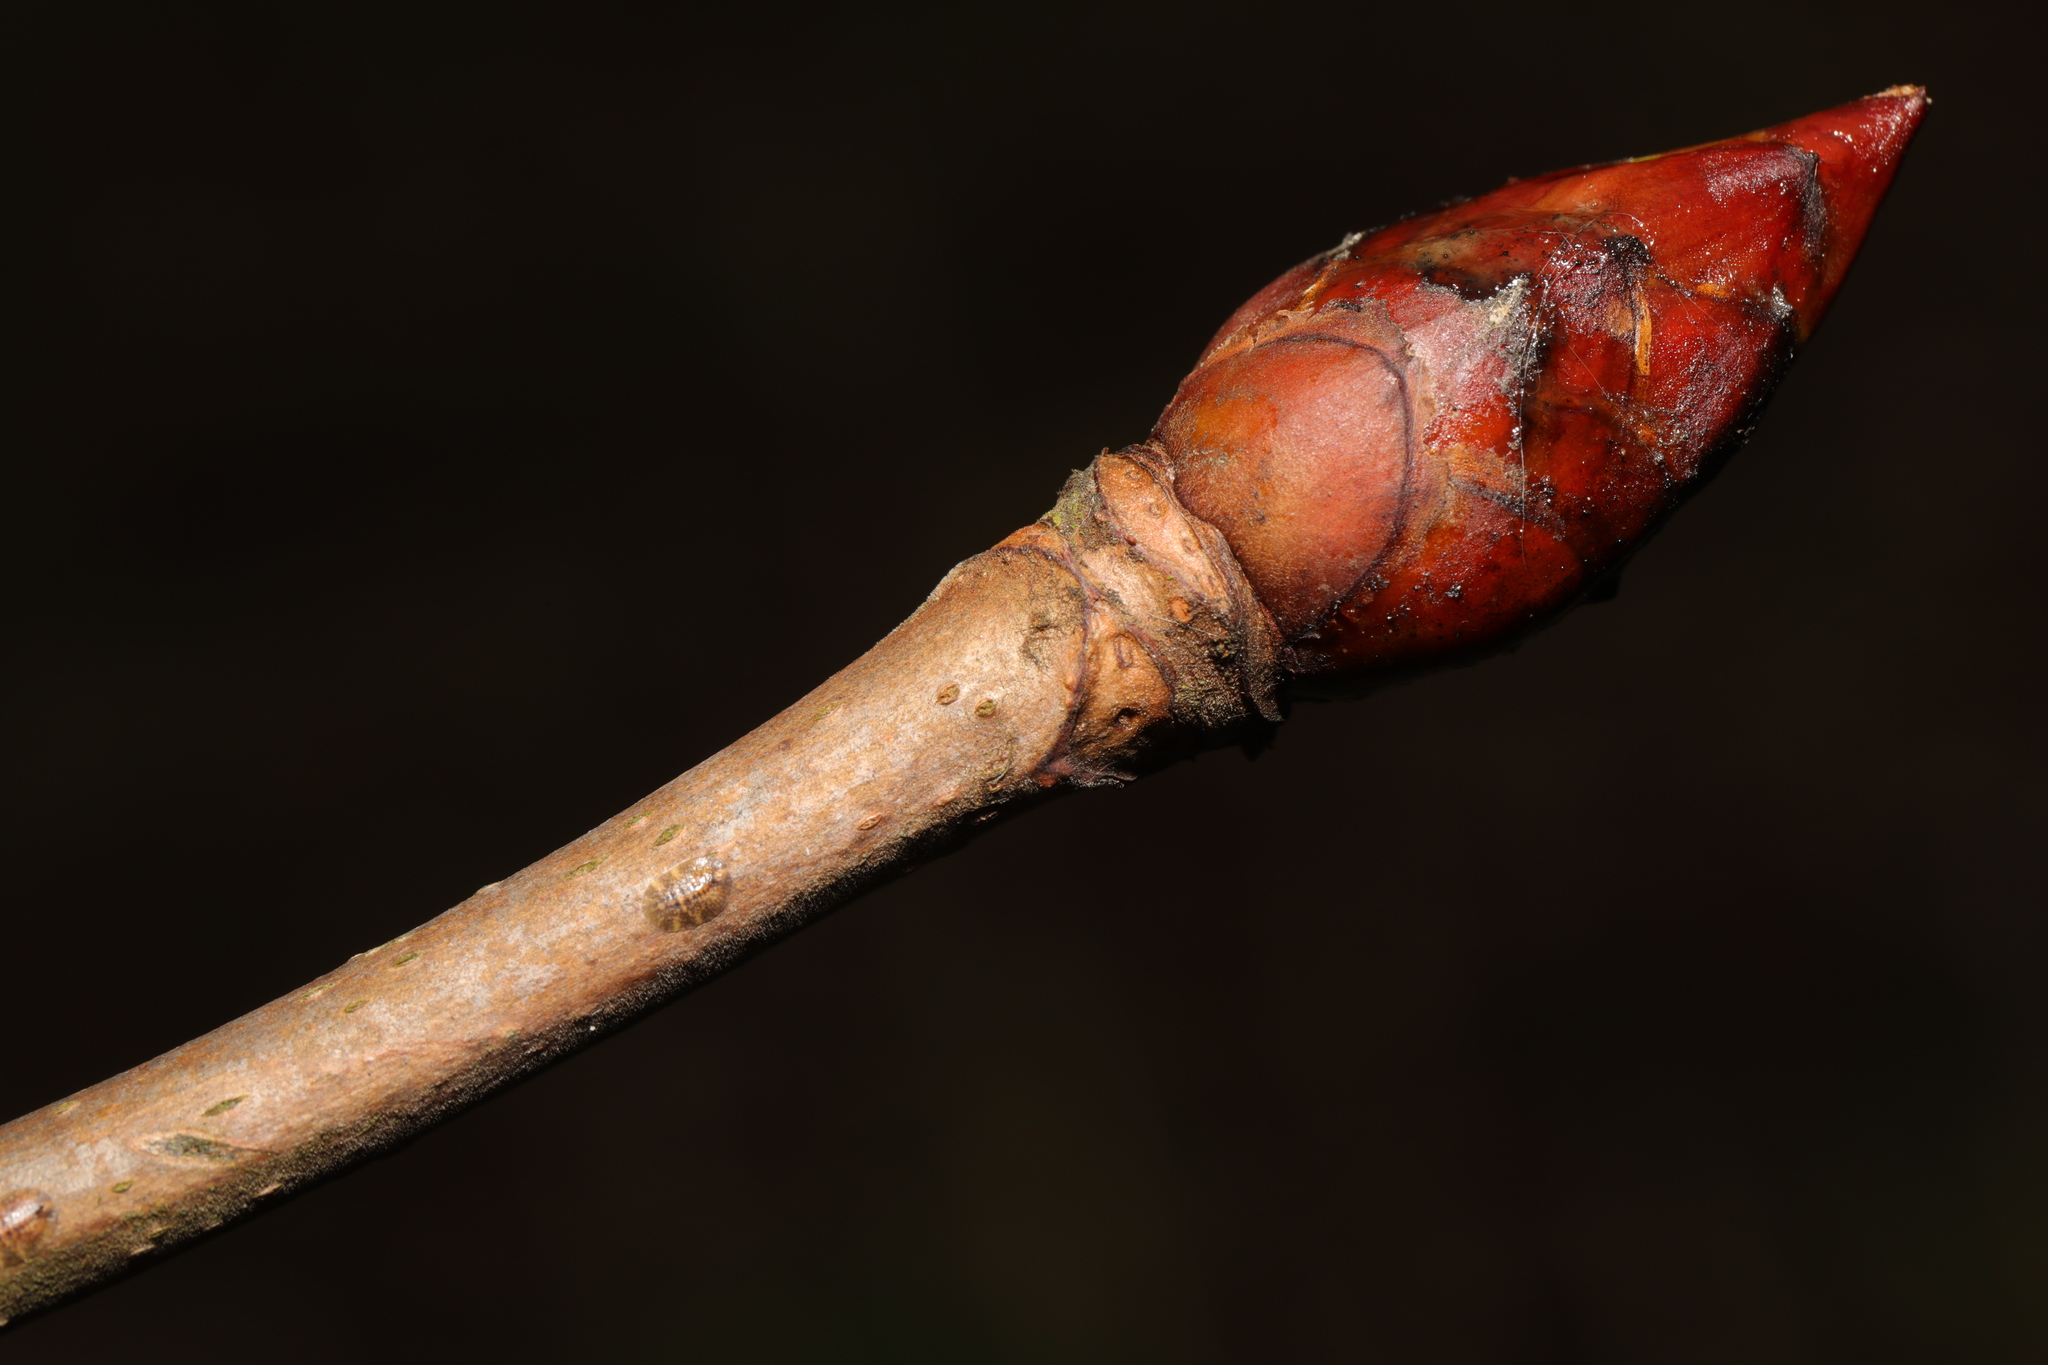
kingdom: Plantae
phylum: Tracheophyta
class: Magnoliopsida
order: Sapindales
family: Sapindaceae
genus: Aesculus
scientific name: Aesculus hippocastanum
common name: Horse-chestnut
